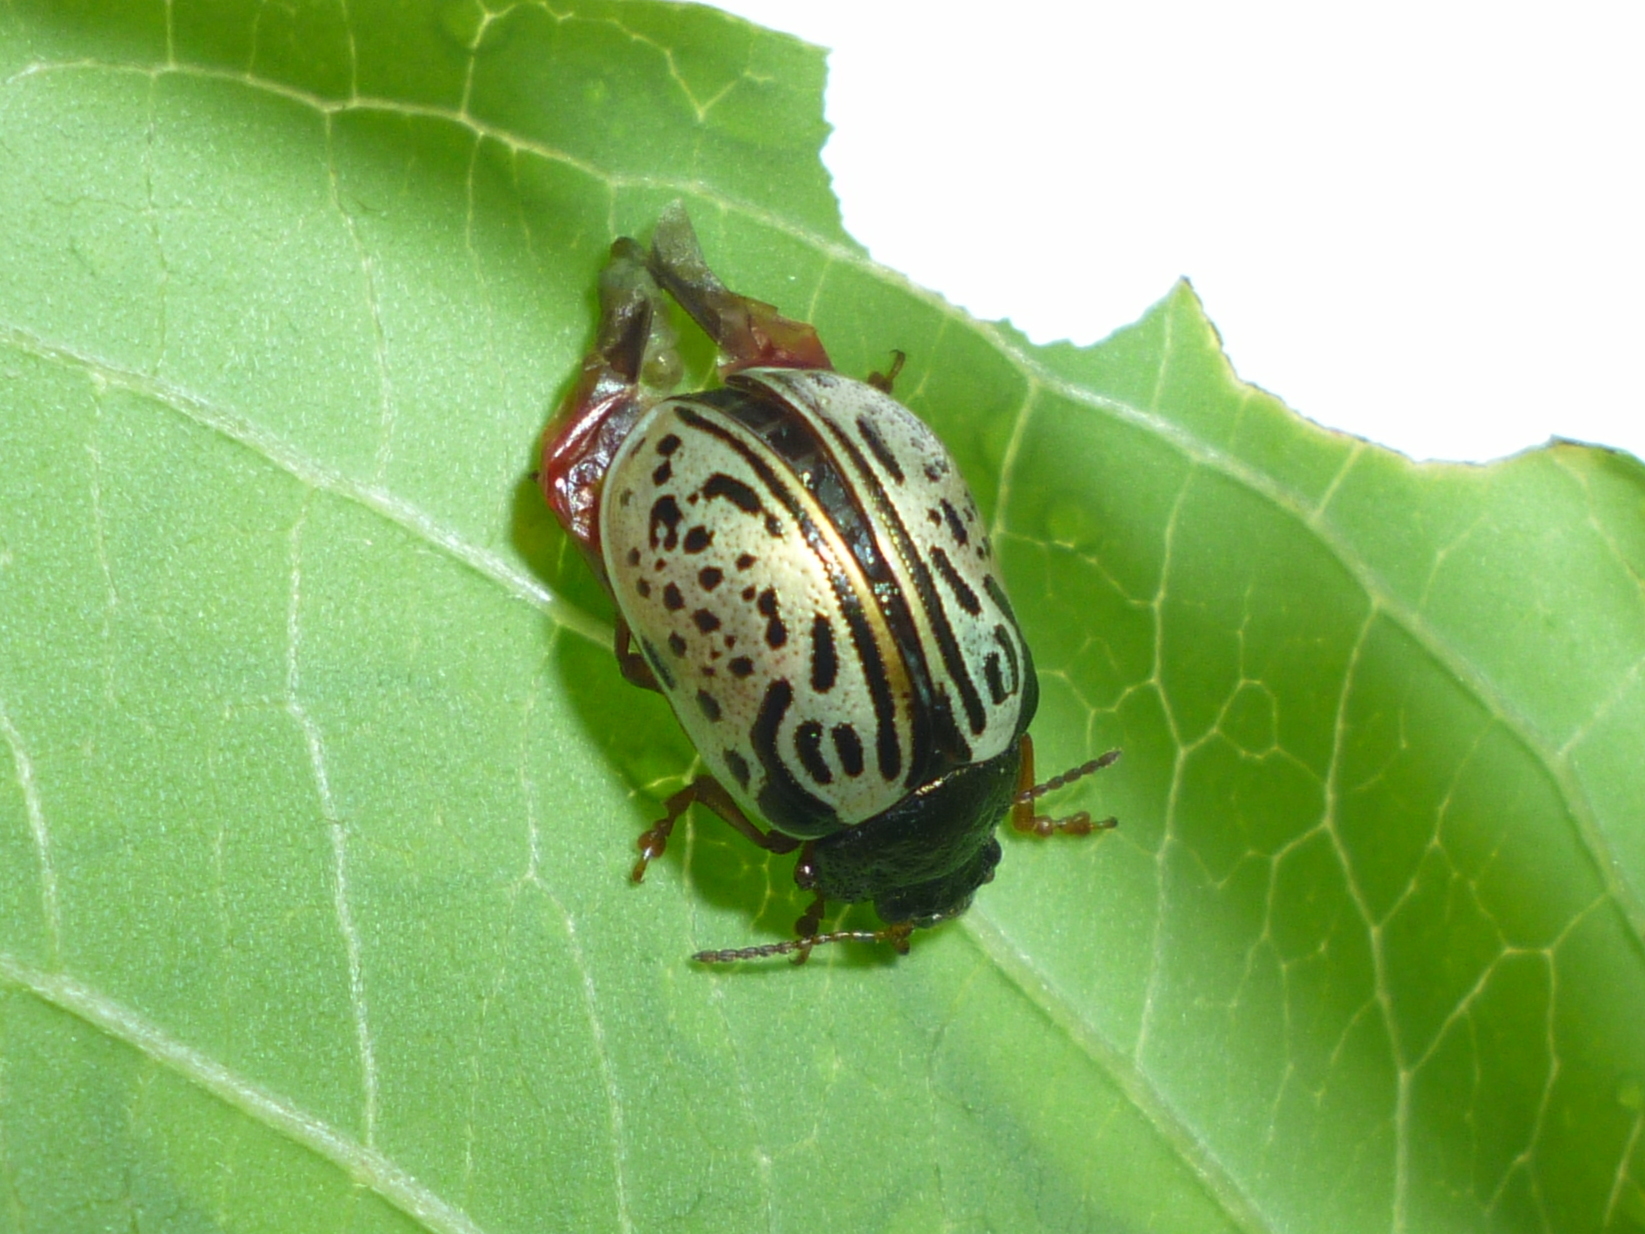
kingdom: Animalia
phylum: Arthropoda
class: Insecta
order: Coleoptera
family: Chrysomelidae
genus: Calligrapha
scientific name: Calligrapha philadelphica
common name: Dogwood leaf beetle
